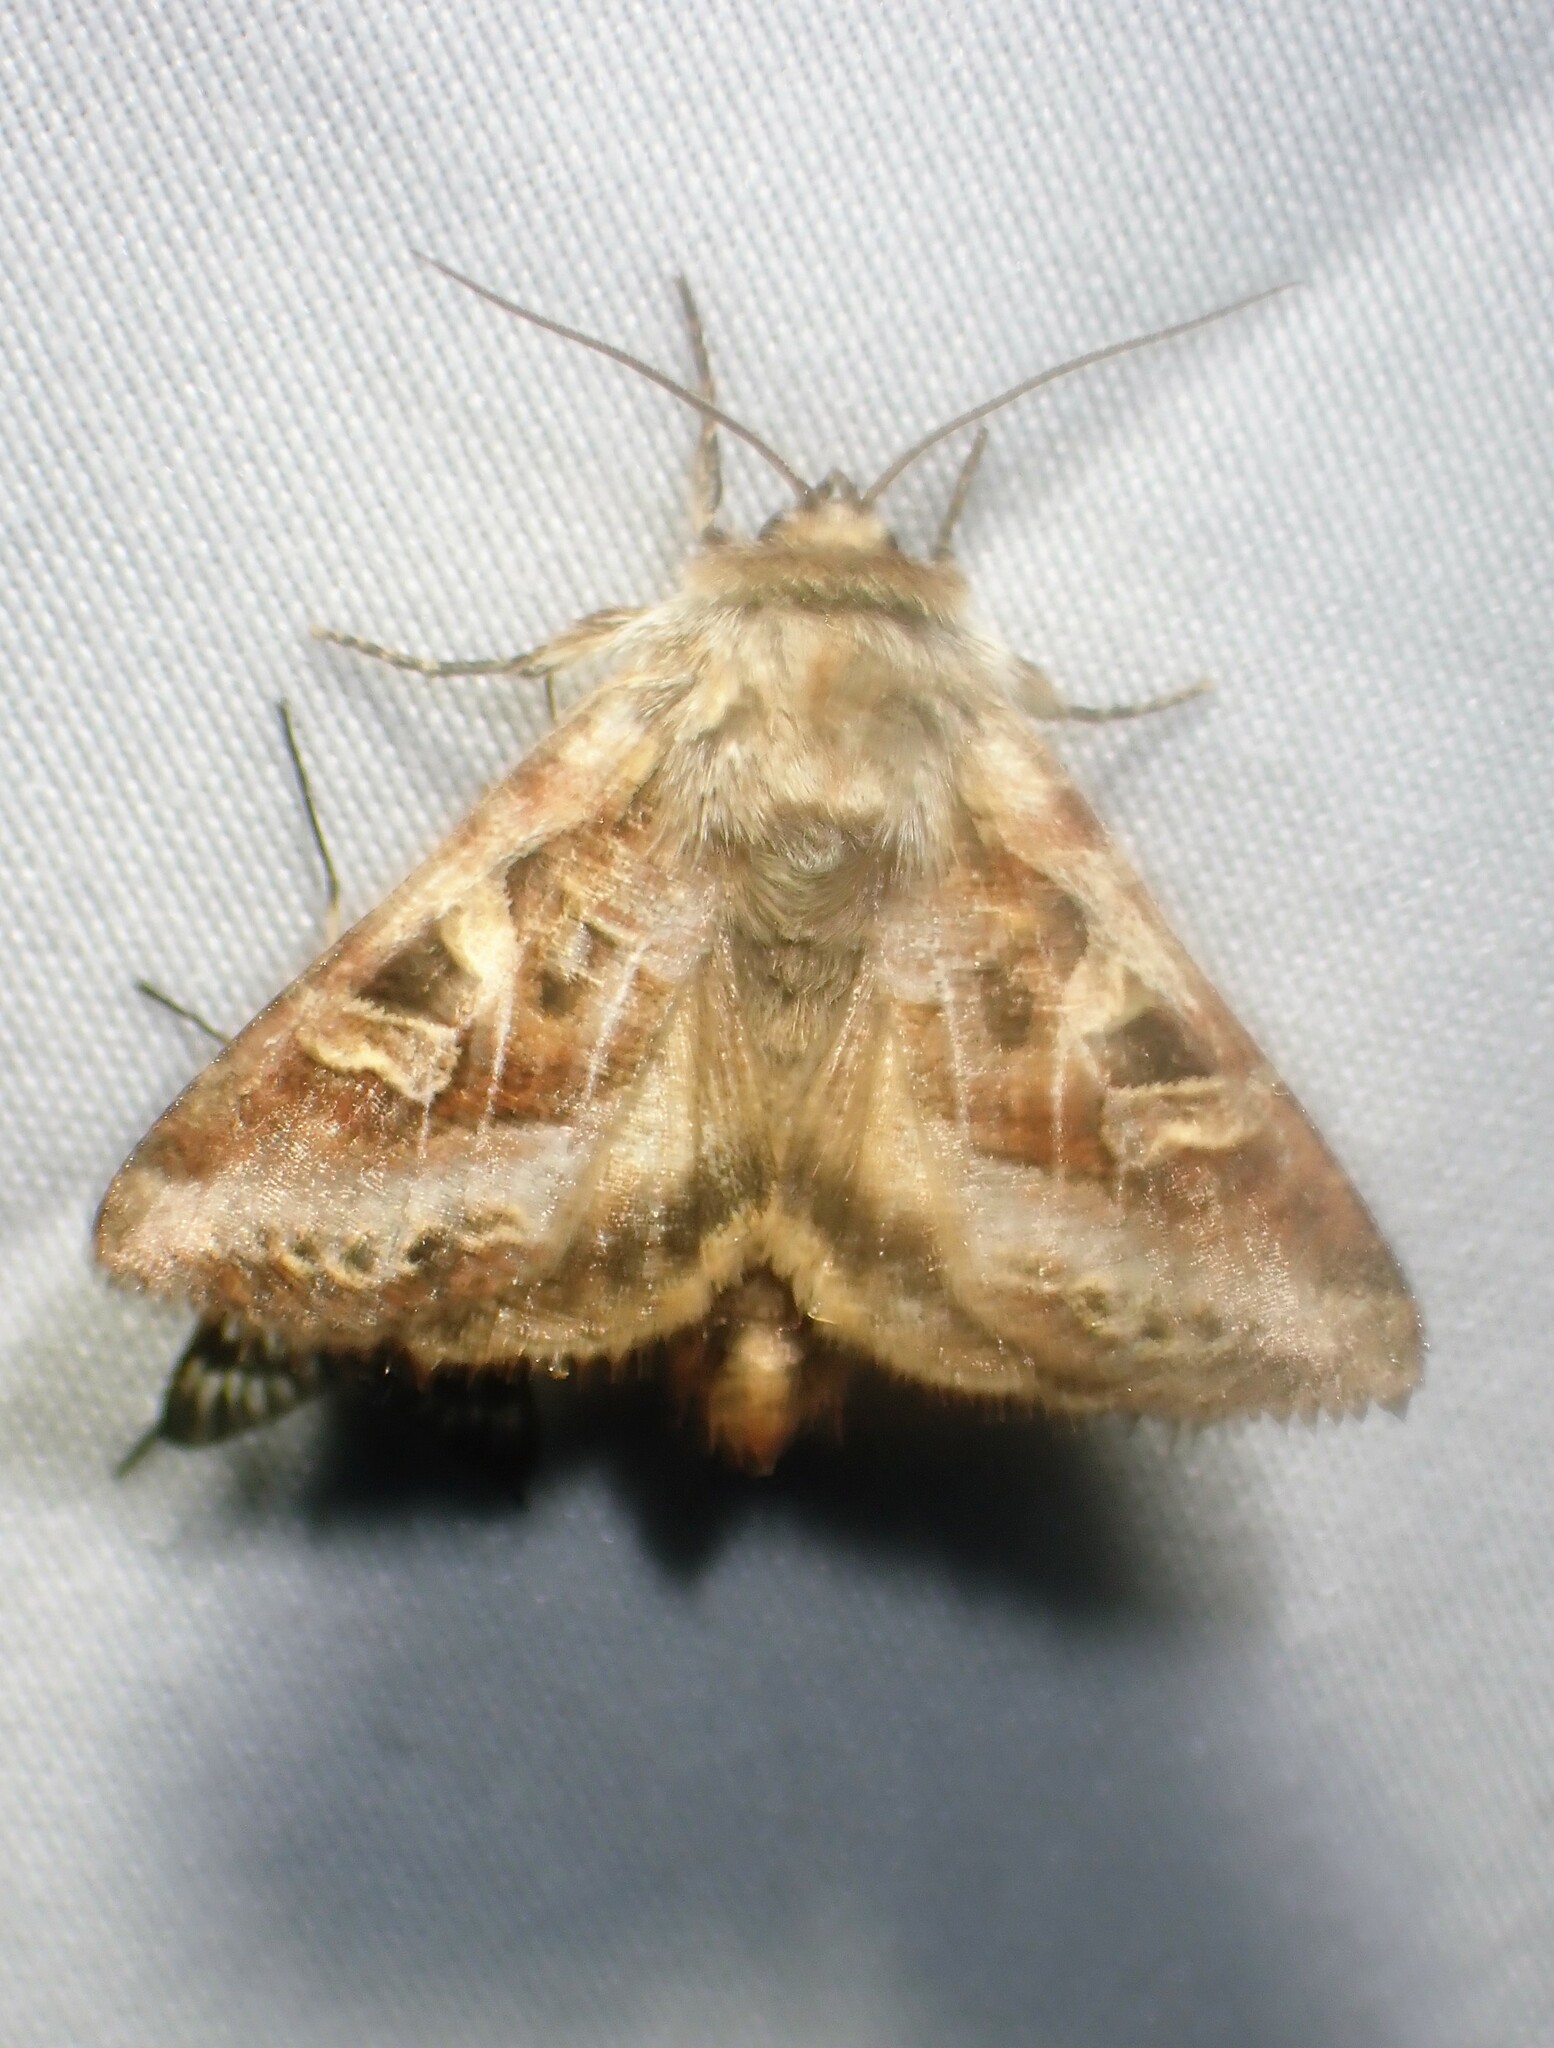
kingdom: Animalia
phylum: Arthropoda
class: Insecta
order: Lepidoptera
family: Noctuidae
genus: Trichordestra
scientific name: Trichordestra rugosa
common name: Wrinkled trichordestra
